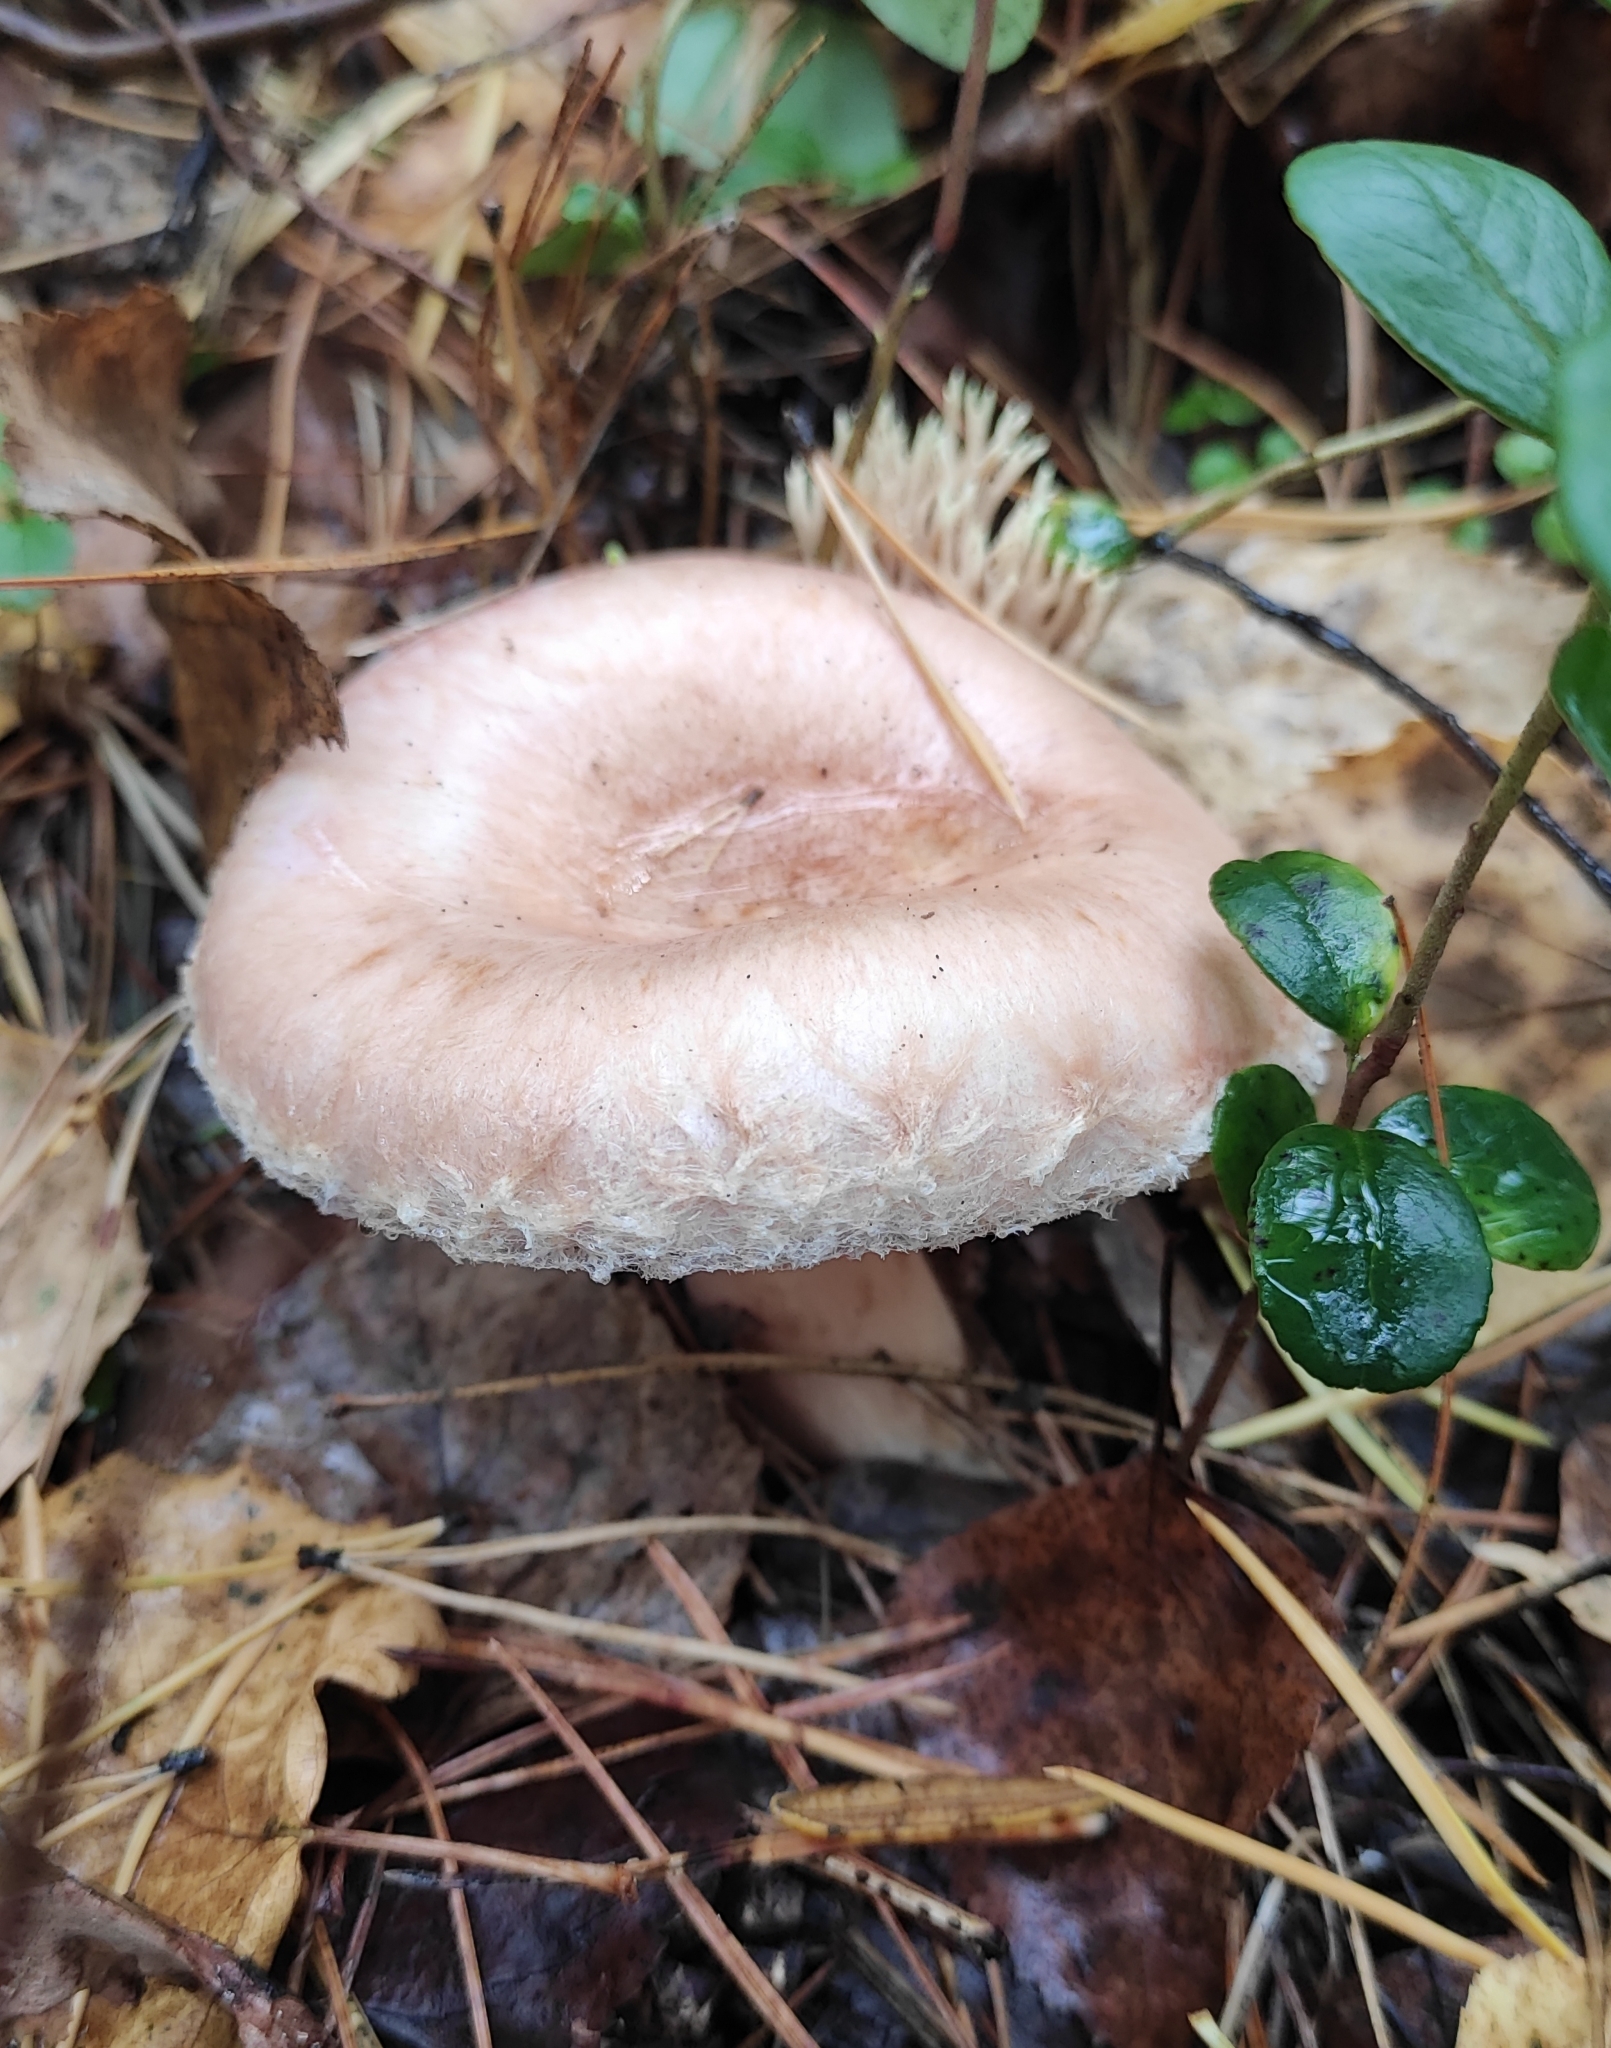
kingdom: Fungi
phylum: Basidiomycota
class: Agaricomycetes
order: Russulales
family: Russulaceae
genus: Lactarius
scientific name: Lactarius torminosus
